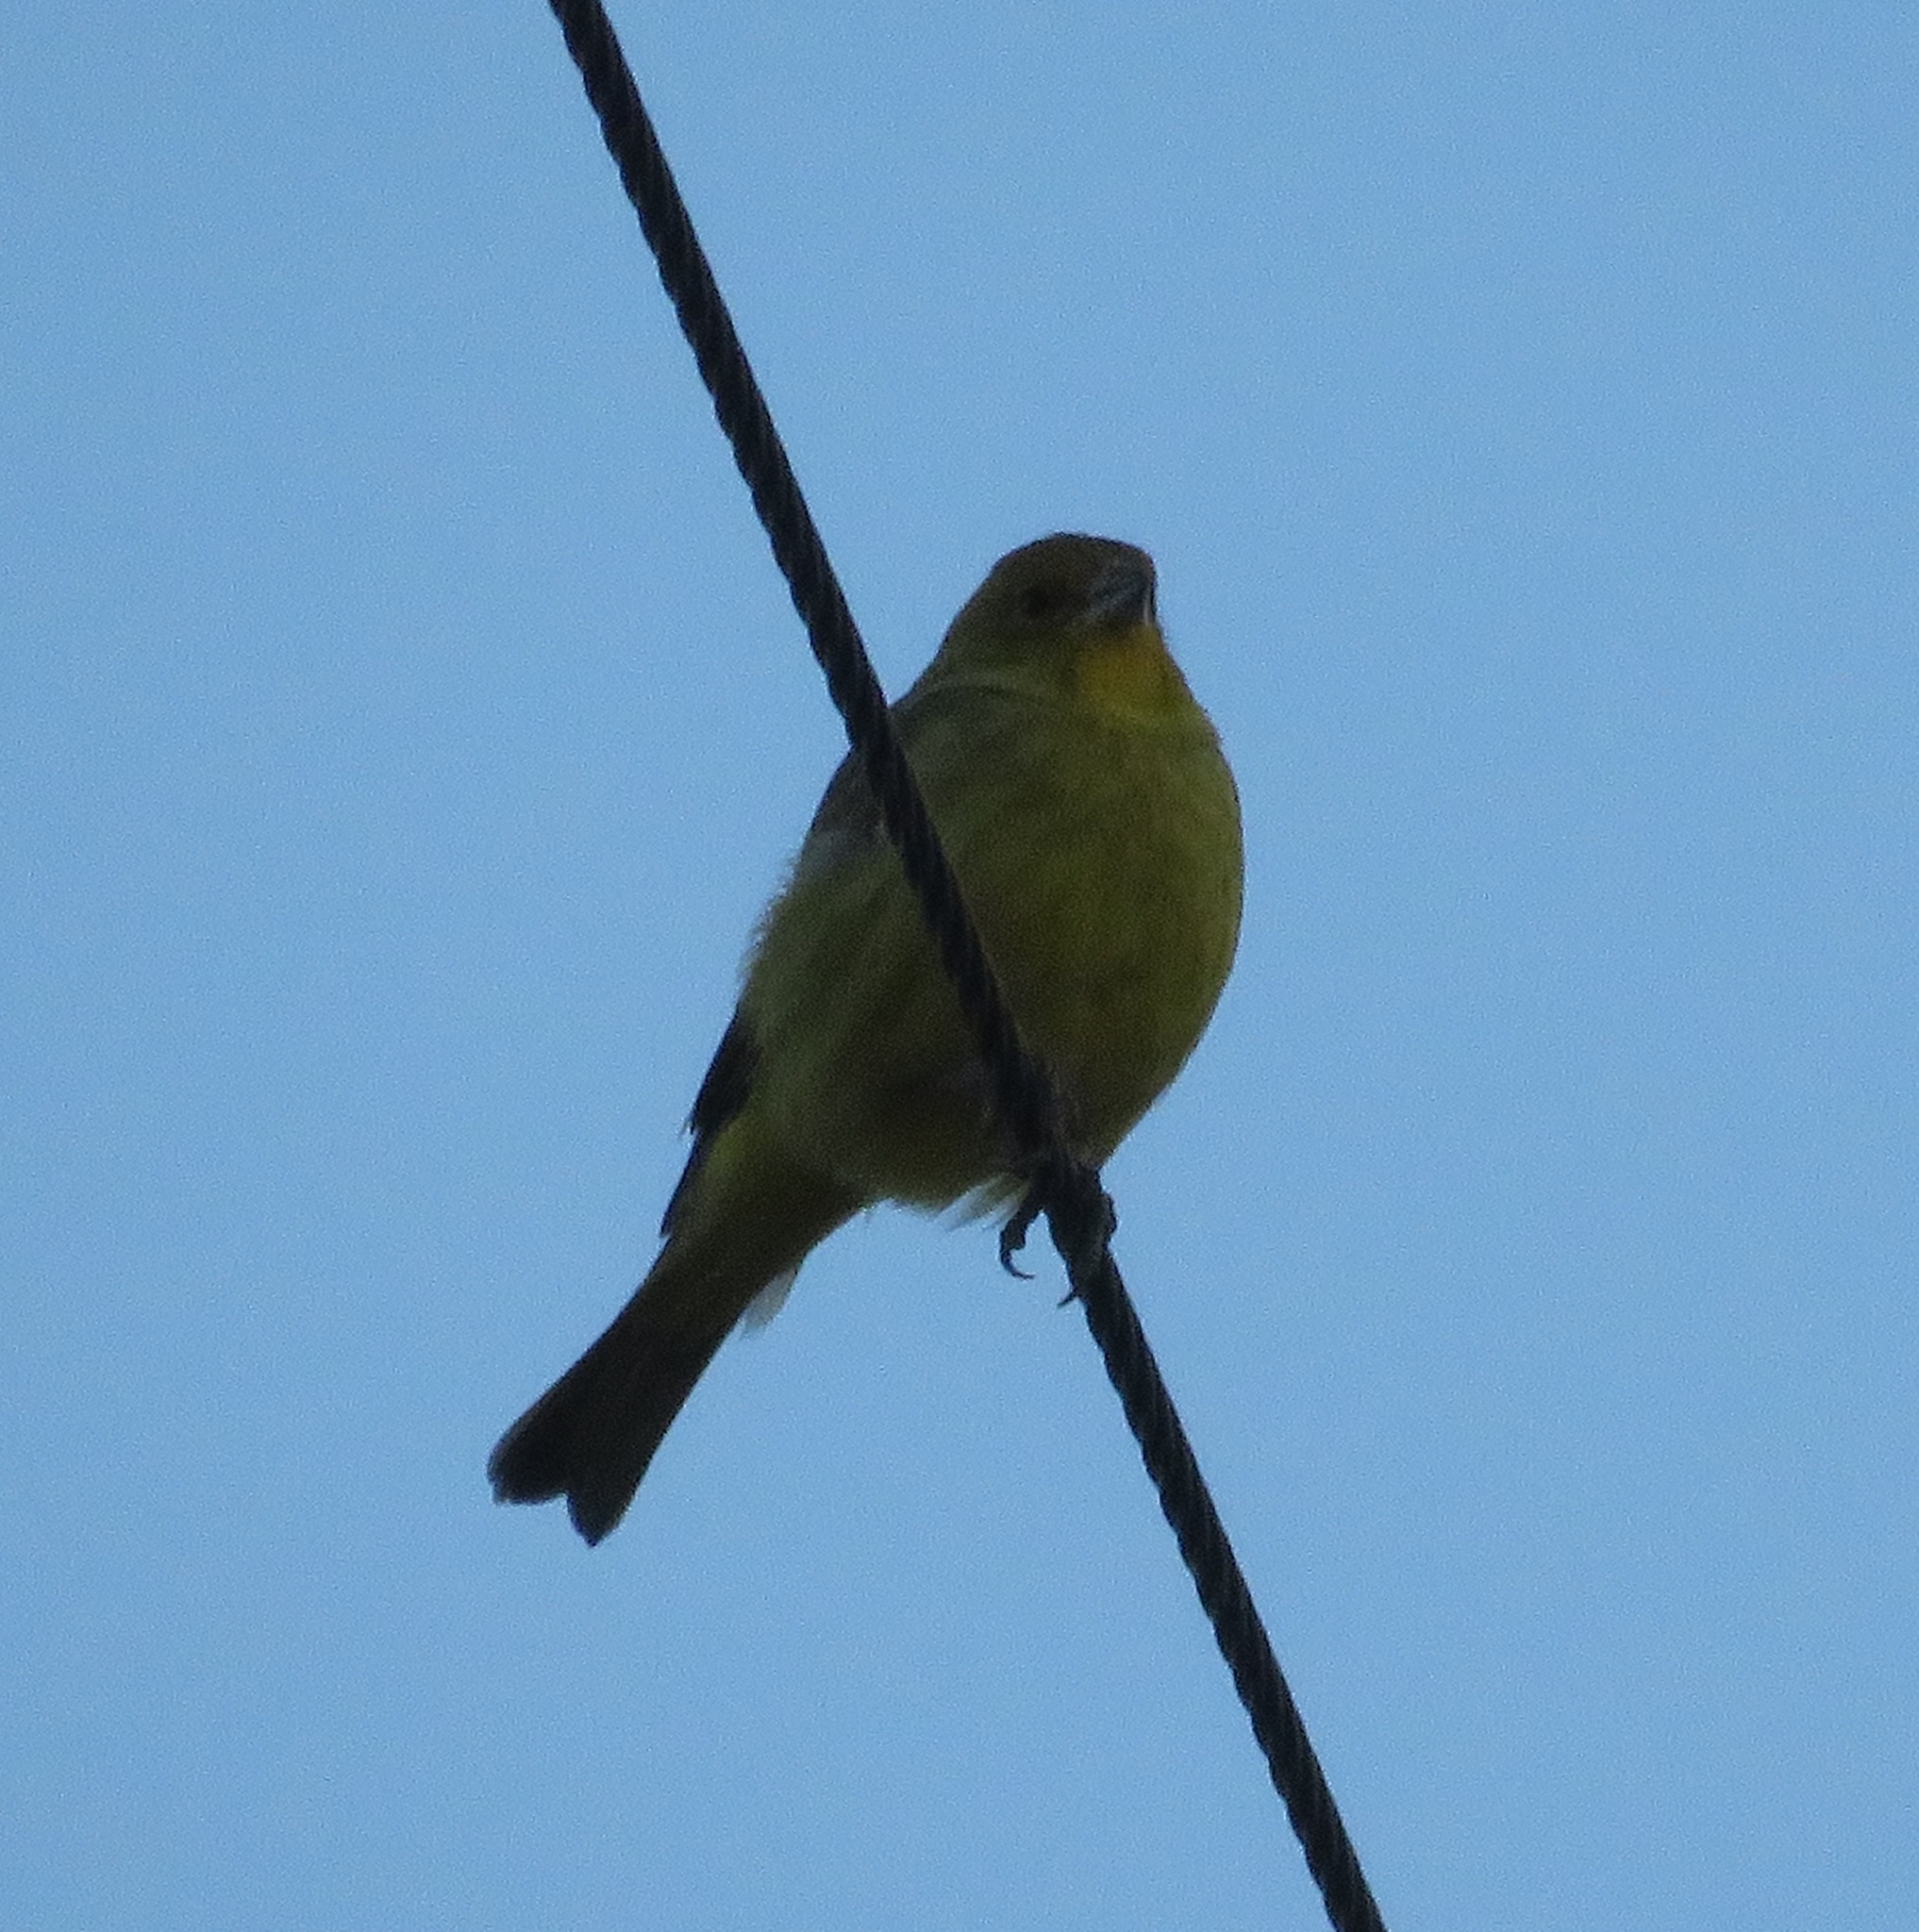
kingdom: Animalia
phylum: Chordata
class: Aves
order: Passeriformes
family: Thraupidae
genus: Sicalis
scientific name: Sicalis flaveola
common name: Saffron finch
